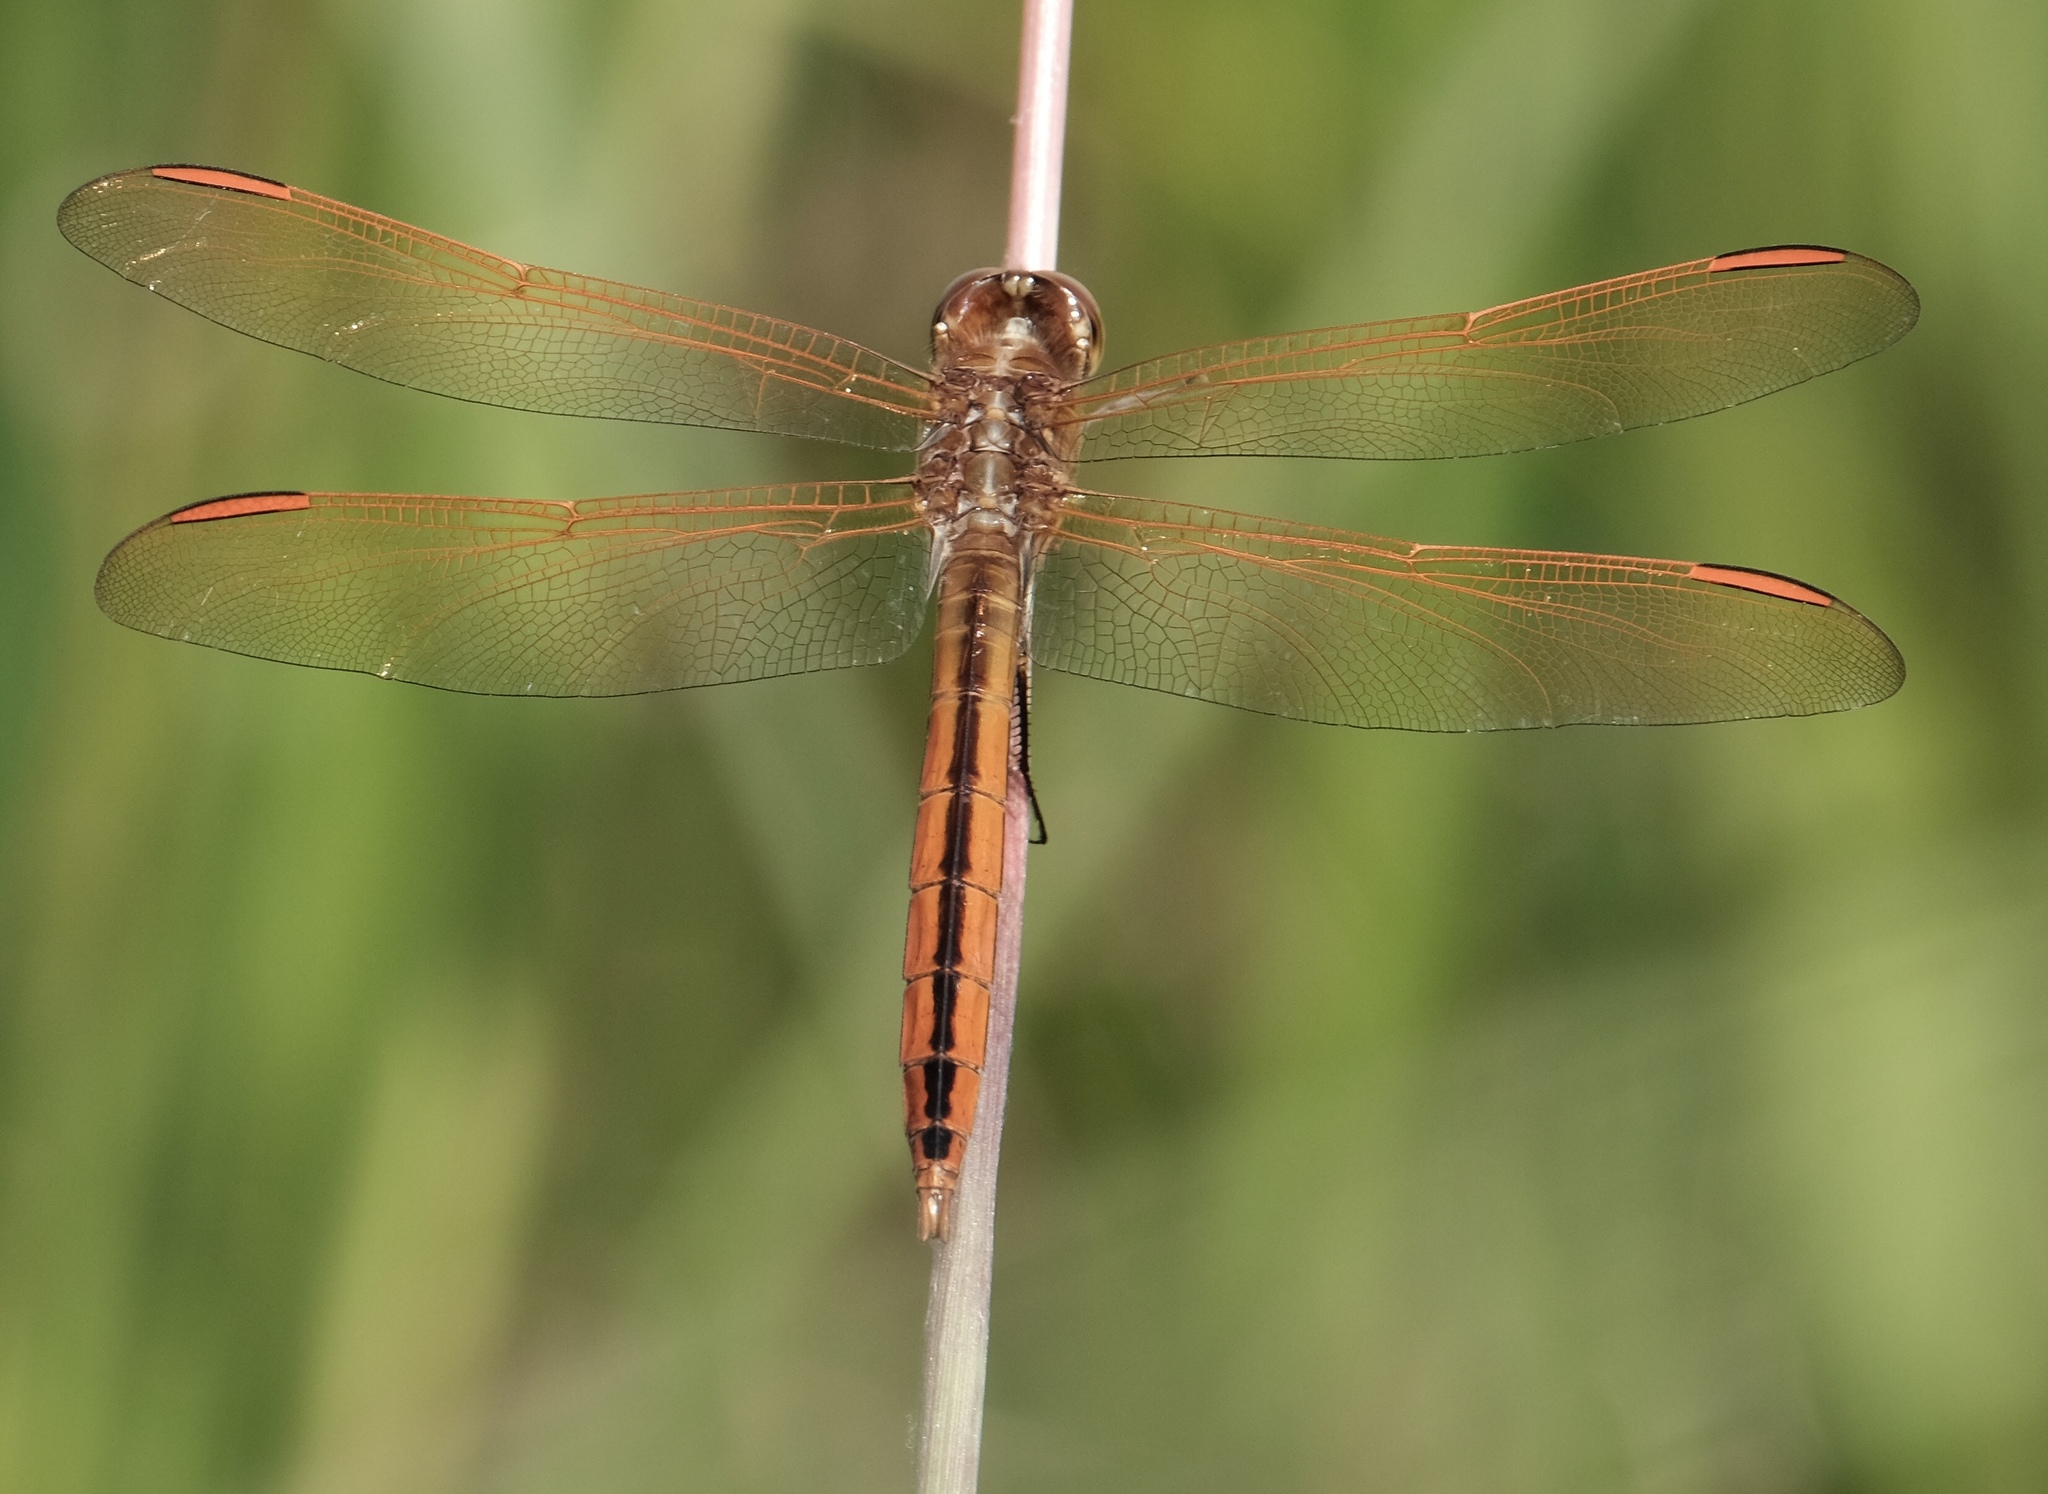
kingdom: Animalia
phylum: Arthropoda
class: Insecta
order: Odonata
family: Libellulidae
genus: Libellula
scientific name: Libellula auripennis
